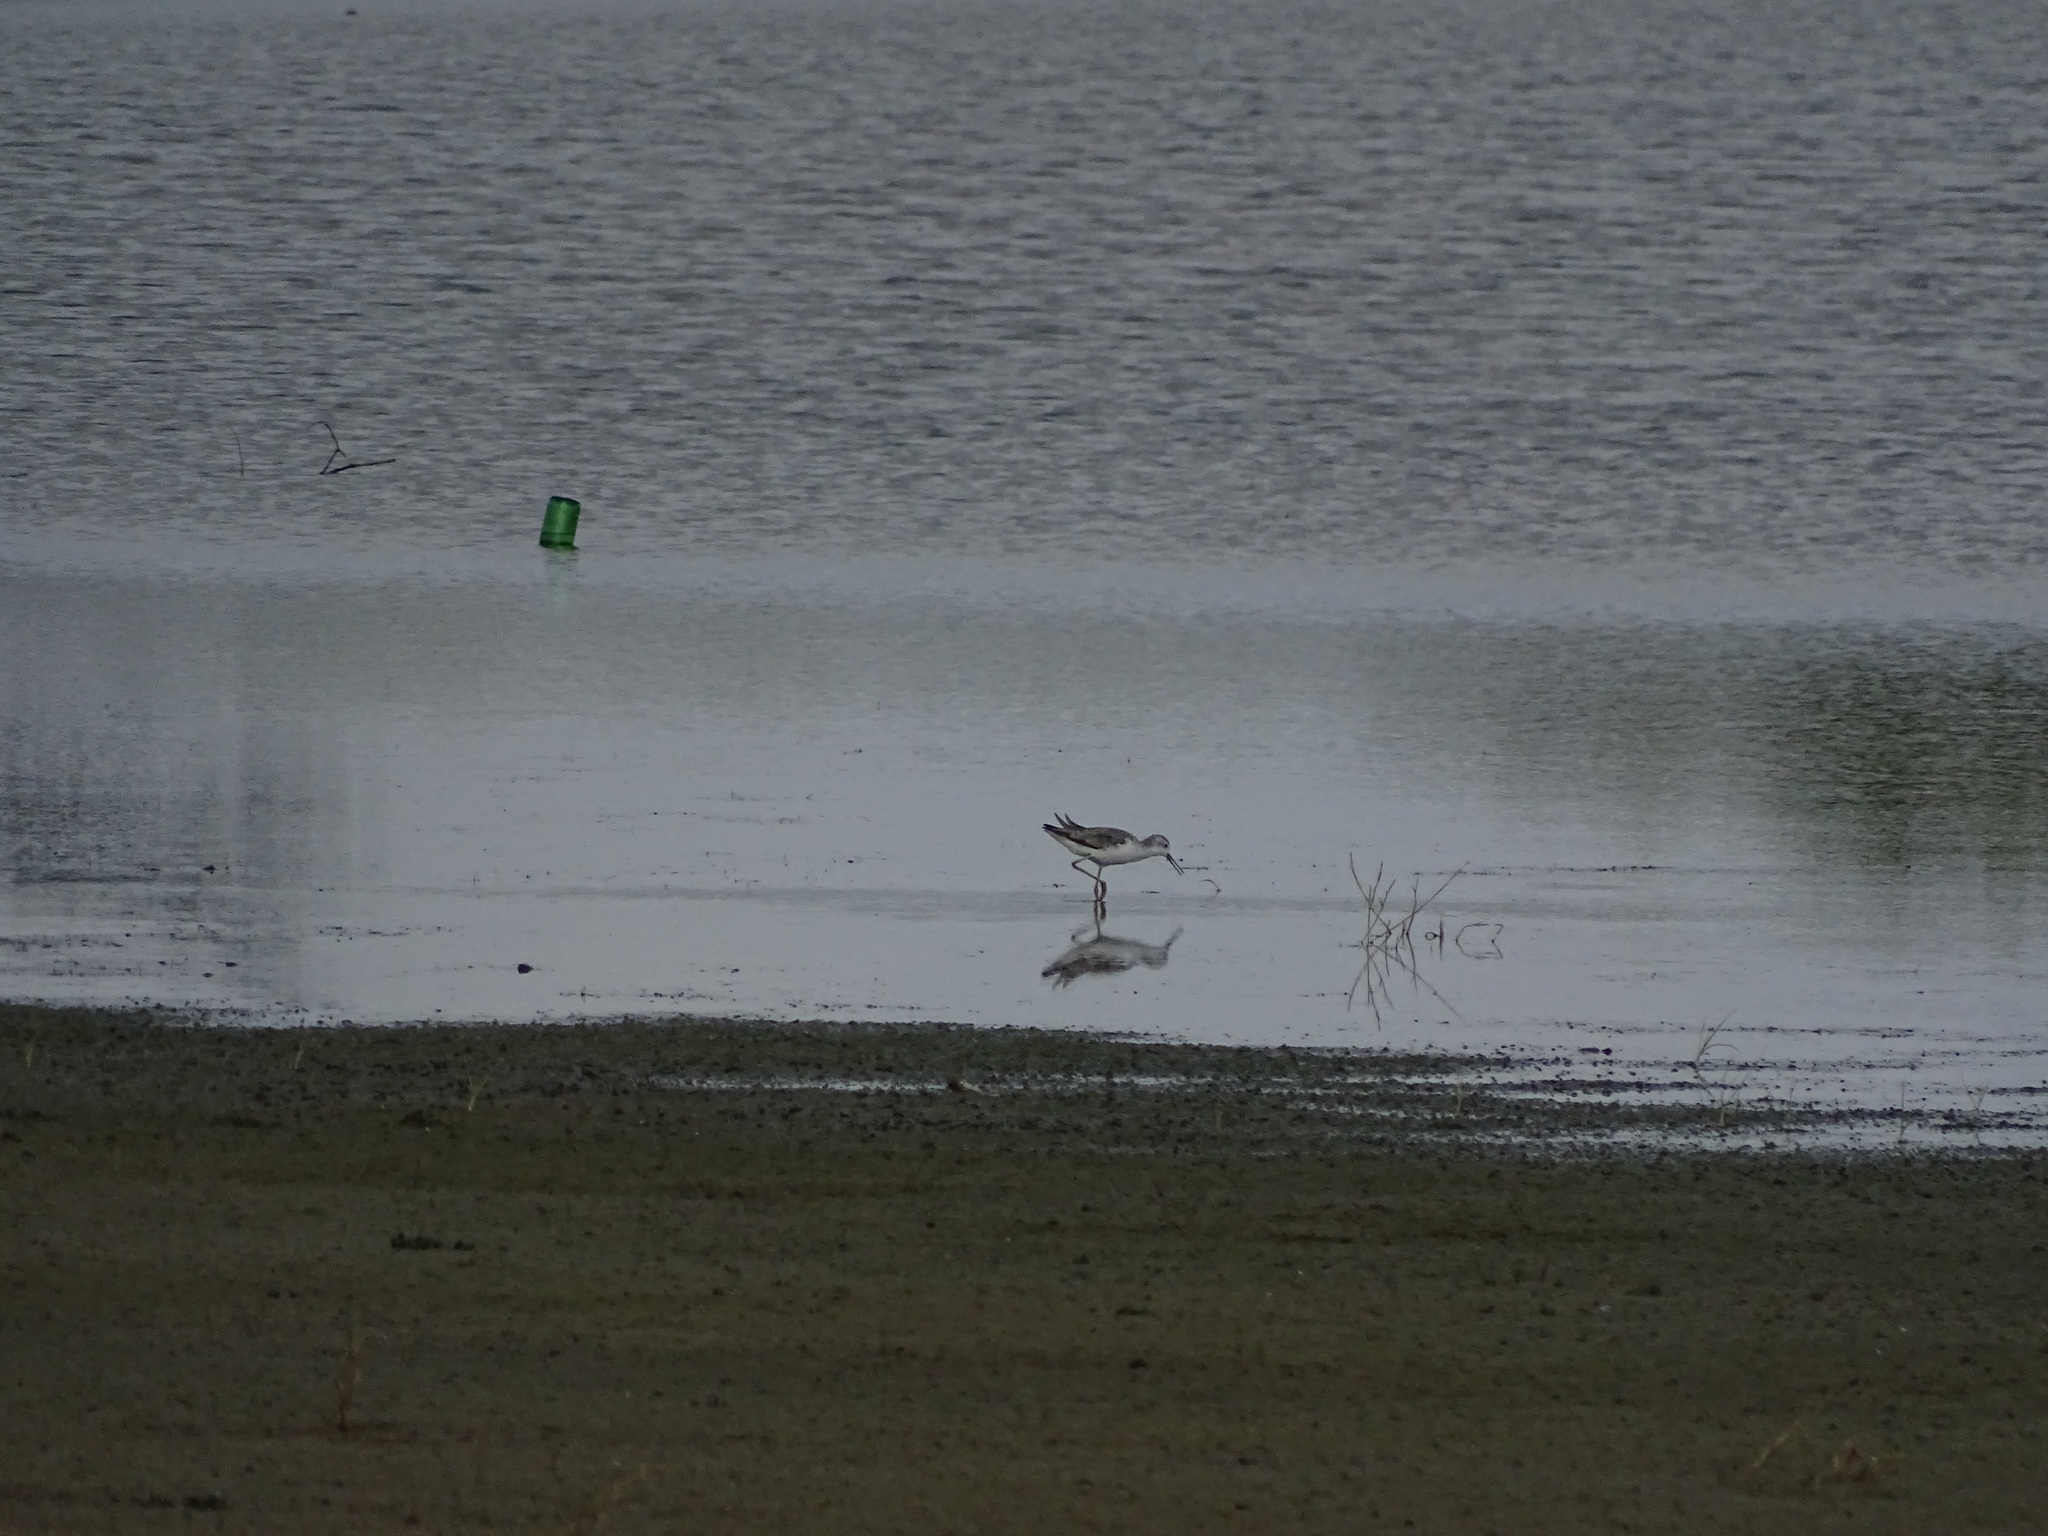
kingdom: Animalia
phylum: Chordata
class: Aves
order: Charadriiformes
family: Scolopacidae
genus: Tringa
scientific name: Tringa stagnatilis
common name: Marsh sandpiper
